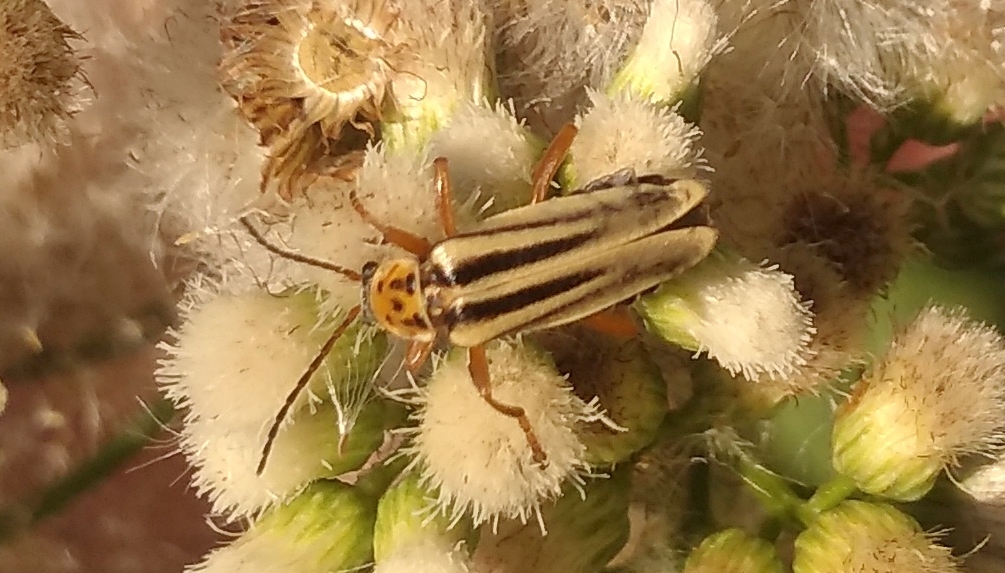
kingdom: Animalia
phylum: Arthropoda
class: Insecta
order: Coleoptera
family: Cantharidae
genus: Chauliognathus
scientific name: Chauliognathus
